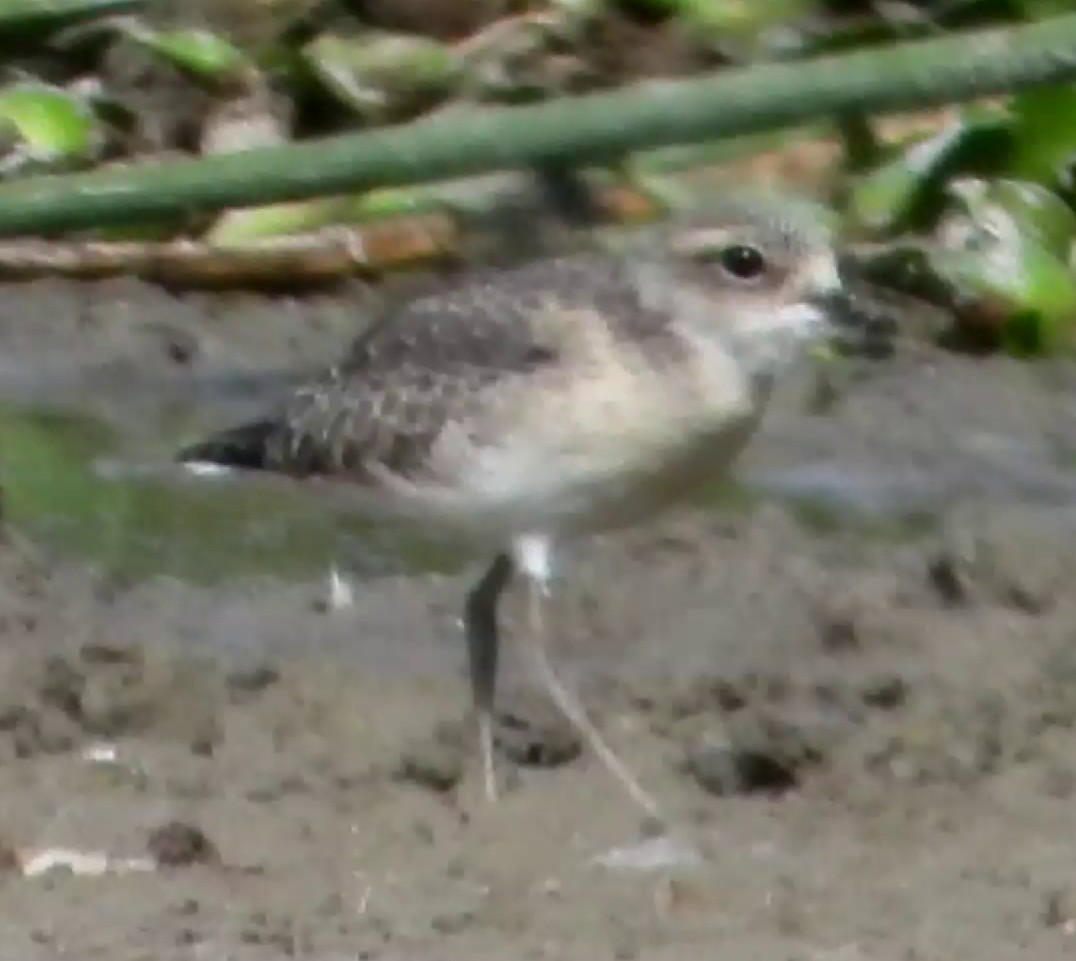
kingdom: Animalia
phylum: Chordata
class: Aves
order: Charadriiformes
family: Charadriidae
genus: Anarhynchus
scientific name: Anarhynchus
